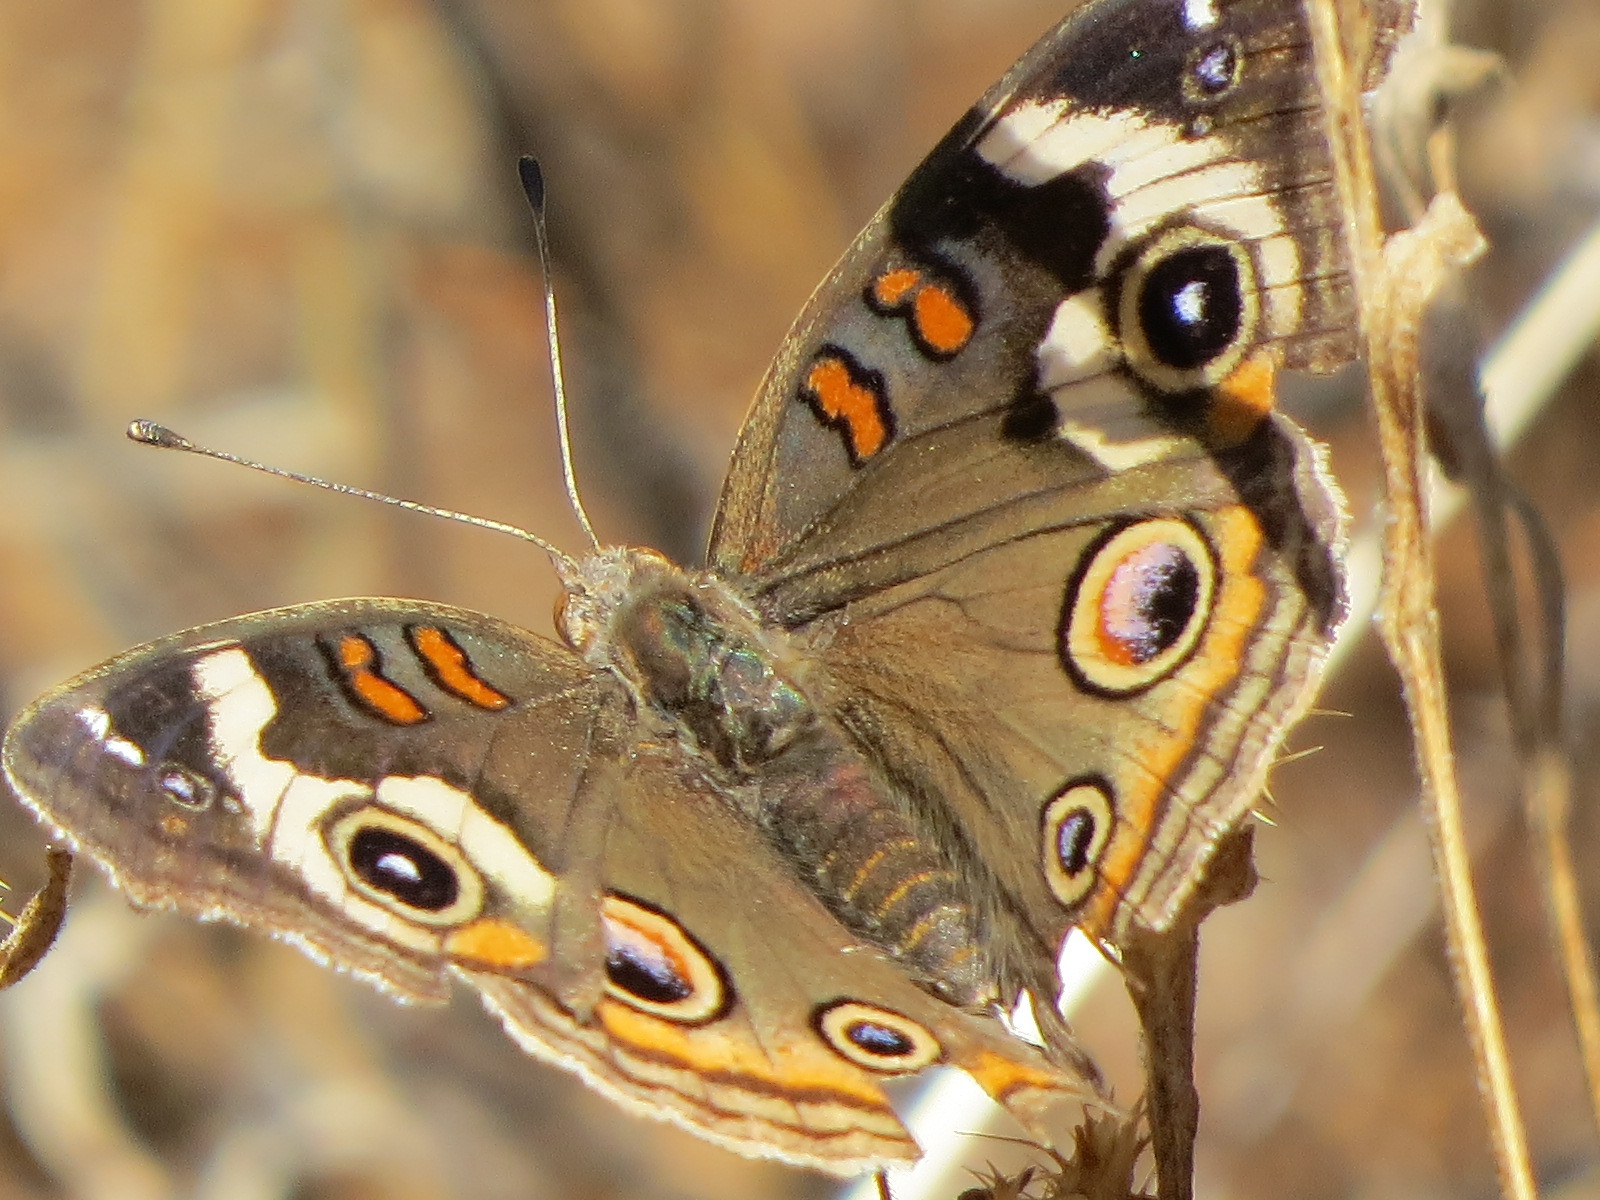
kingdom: Animalia
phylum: Arthropoda
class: Insecta
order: Lepidoptera
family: Nymphalidae
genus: Junonia
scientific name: Junonia grisea
